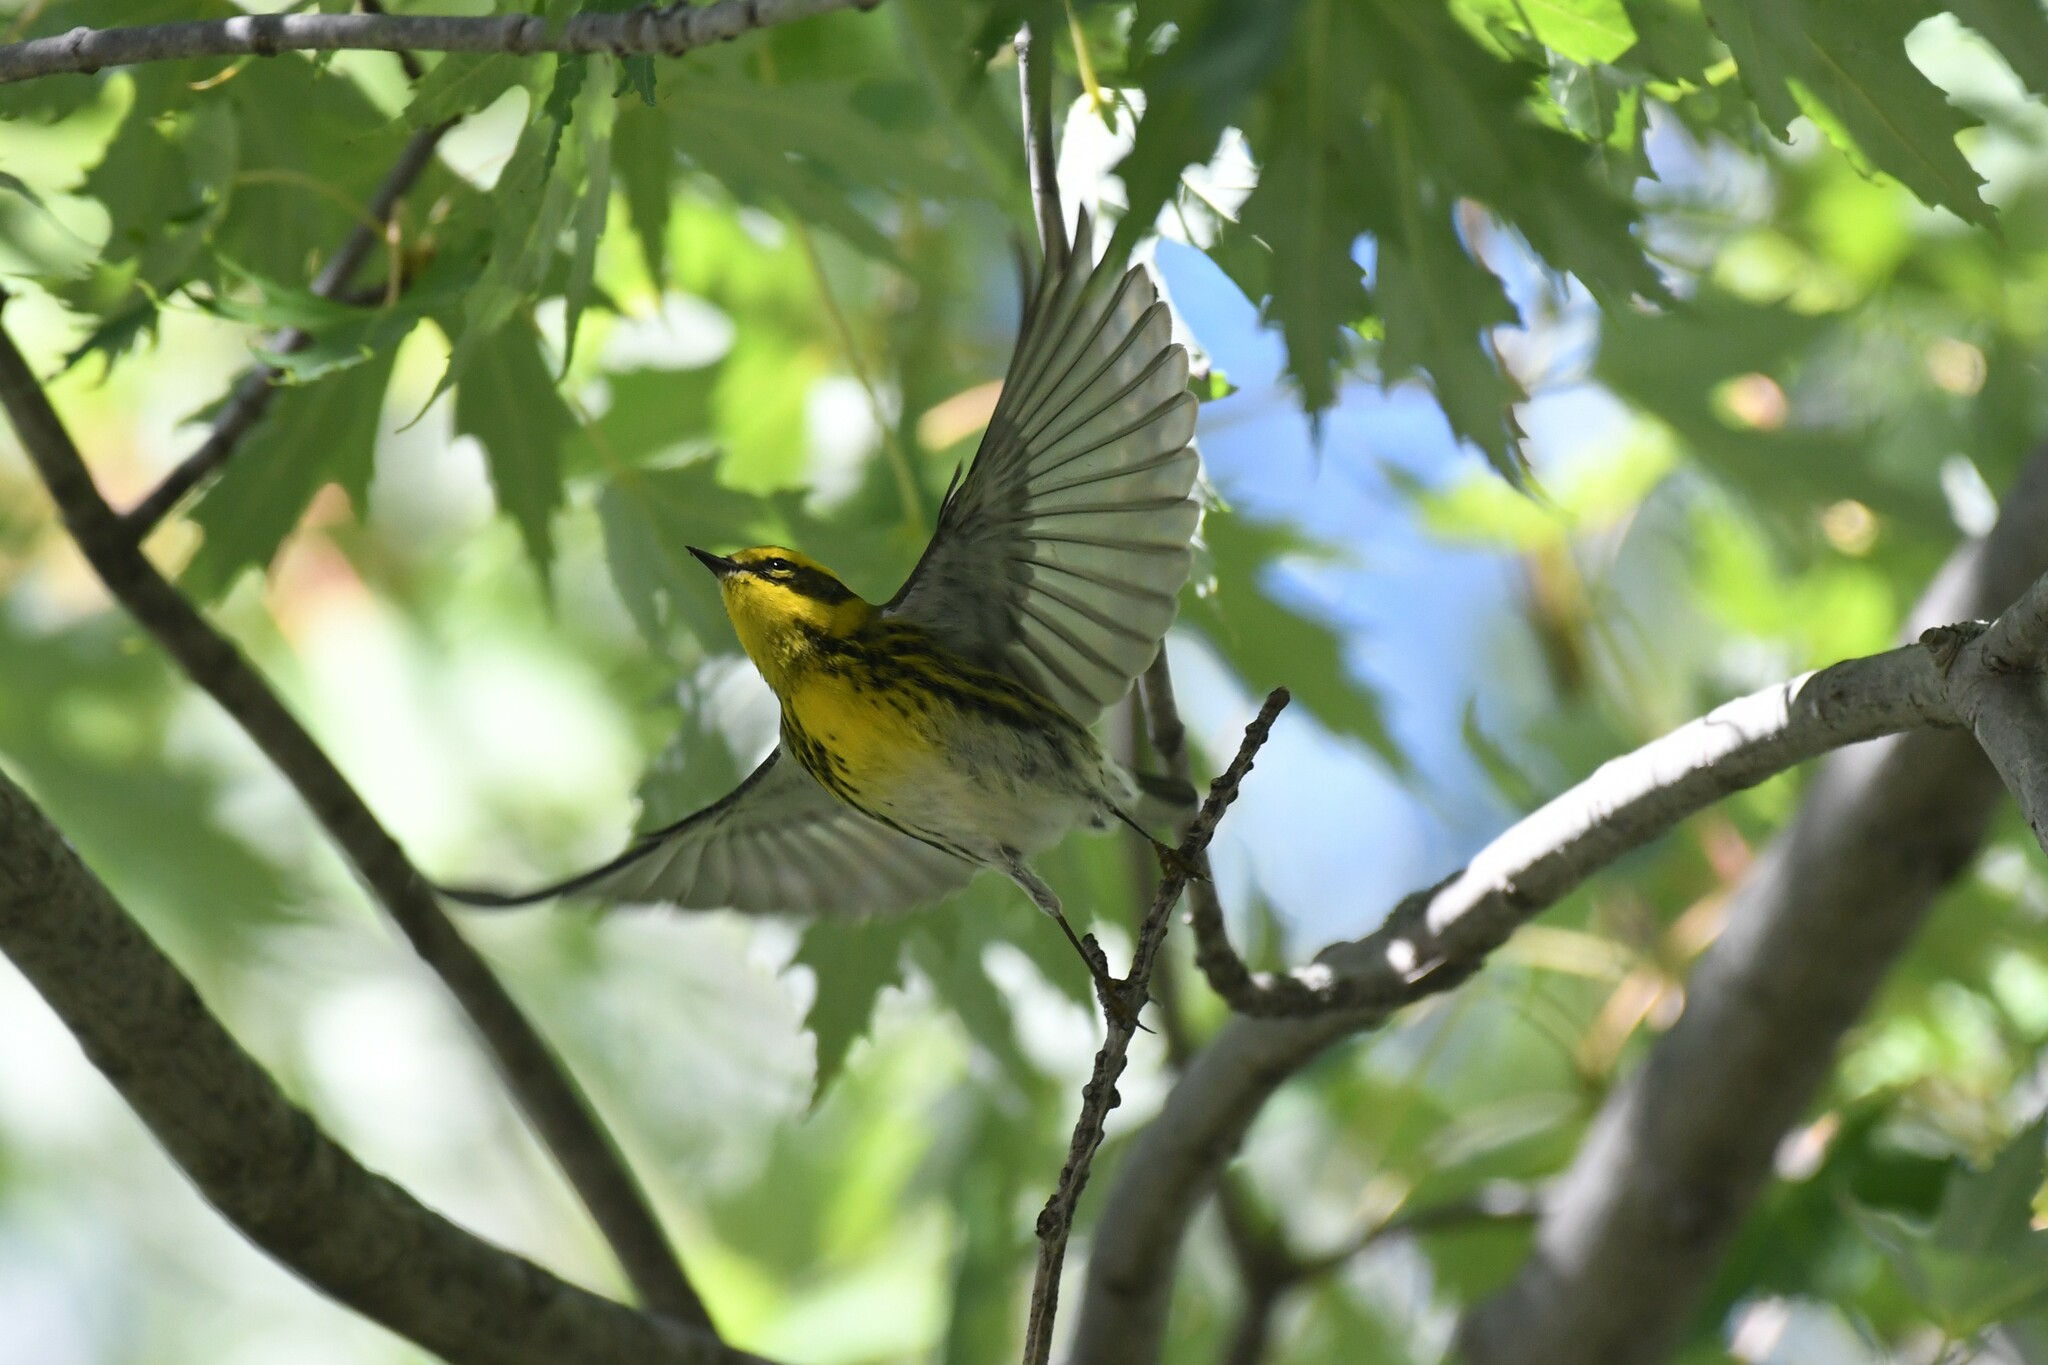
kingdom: Animalia
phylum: Chordata
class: Aves
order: Passeriformes
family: Parulidae
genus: Setophaga
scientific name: Setophaga townsendi
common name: Townsend's warbler
